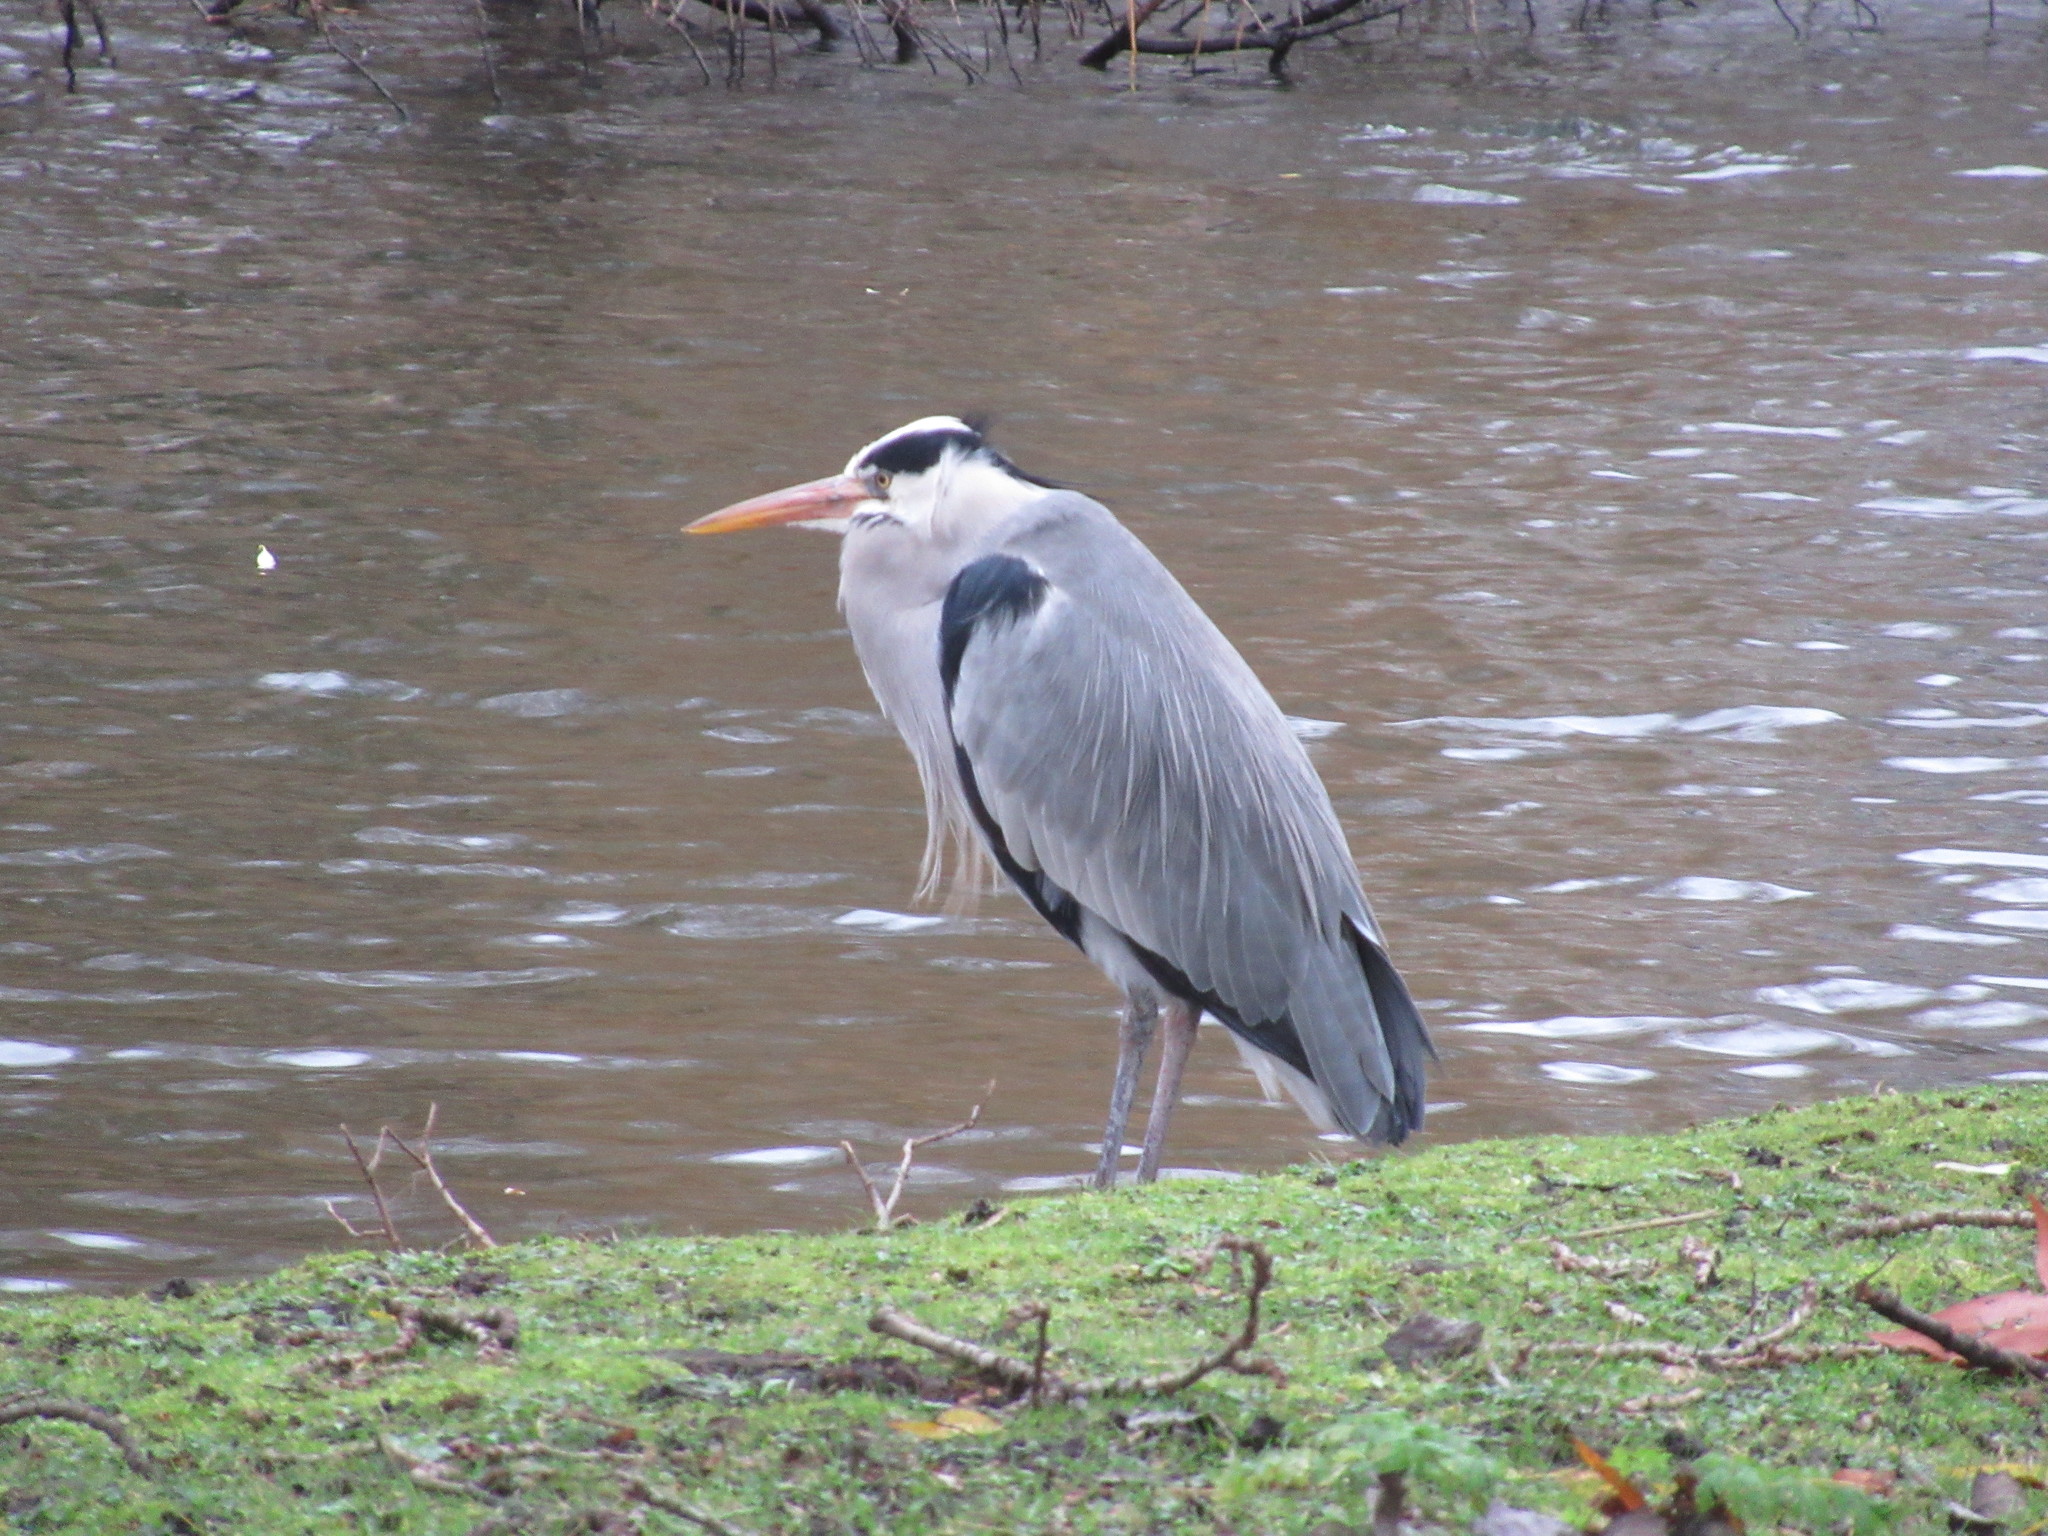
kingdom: Animalia
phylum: Chordata
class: Aves
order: Pelecaniformes
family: Ardeidae
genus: Ardea
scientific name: Ardea cinerea
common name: Grey heron
